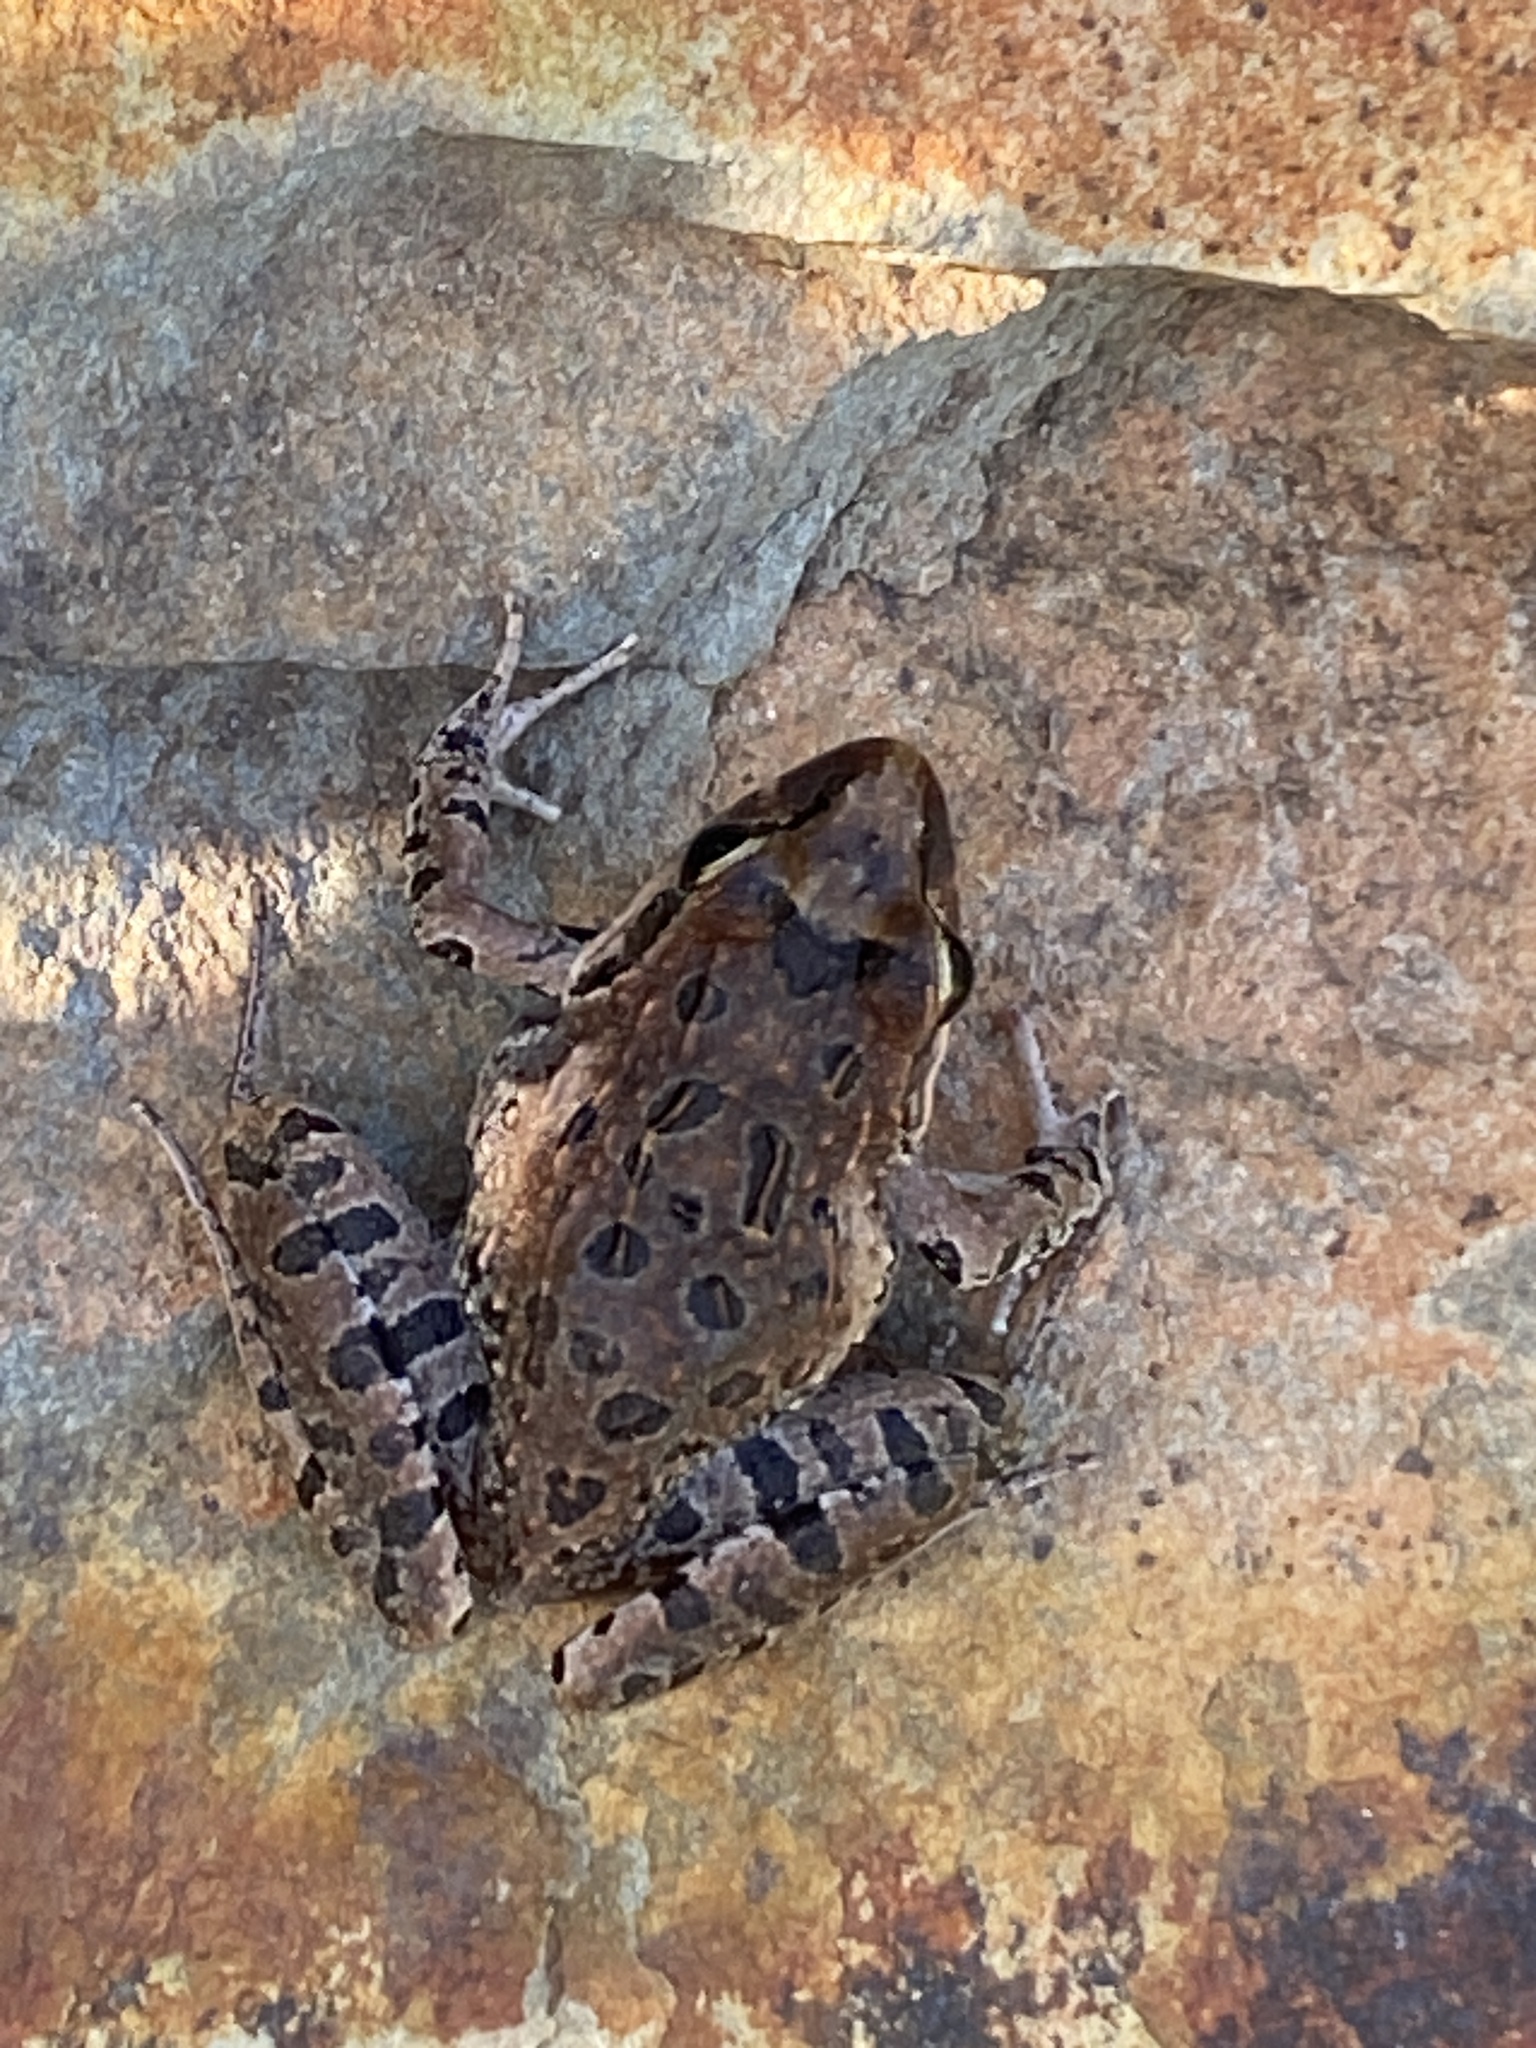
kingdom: Animalia
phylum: Chordata
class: Amphibia
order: Anura
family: Pyxicephalidae
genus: Strongylopus
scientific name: Strongylopus grayii
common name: Gray's stream frog
